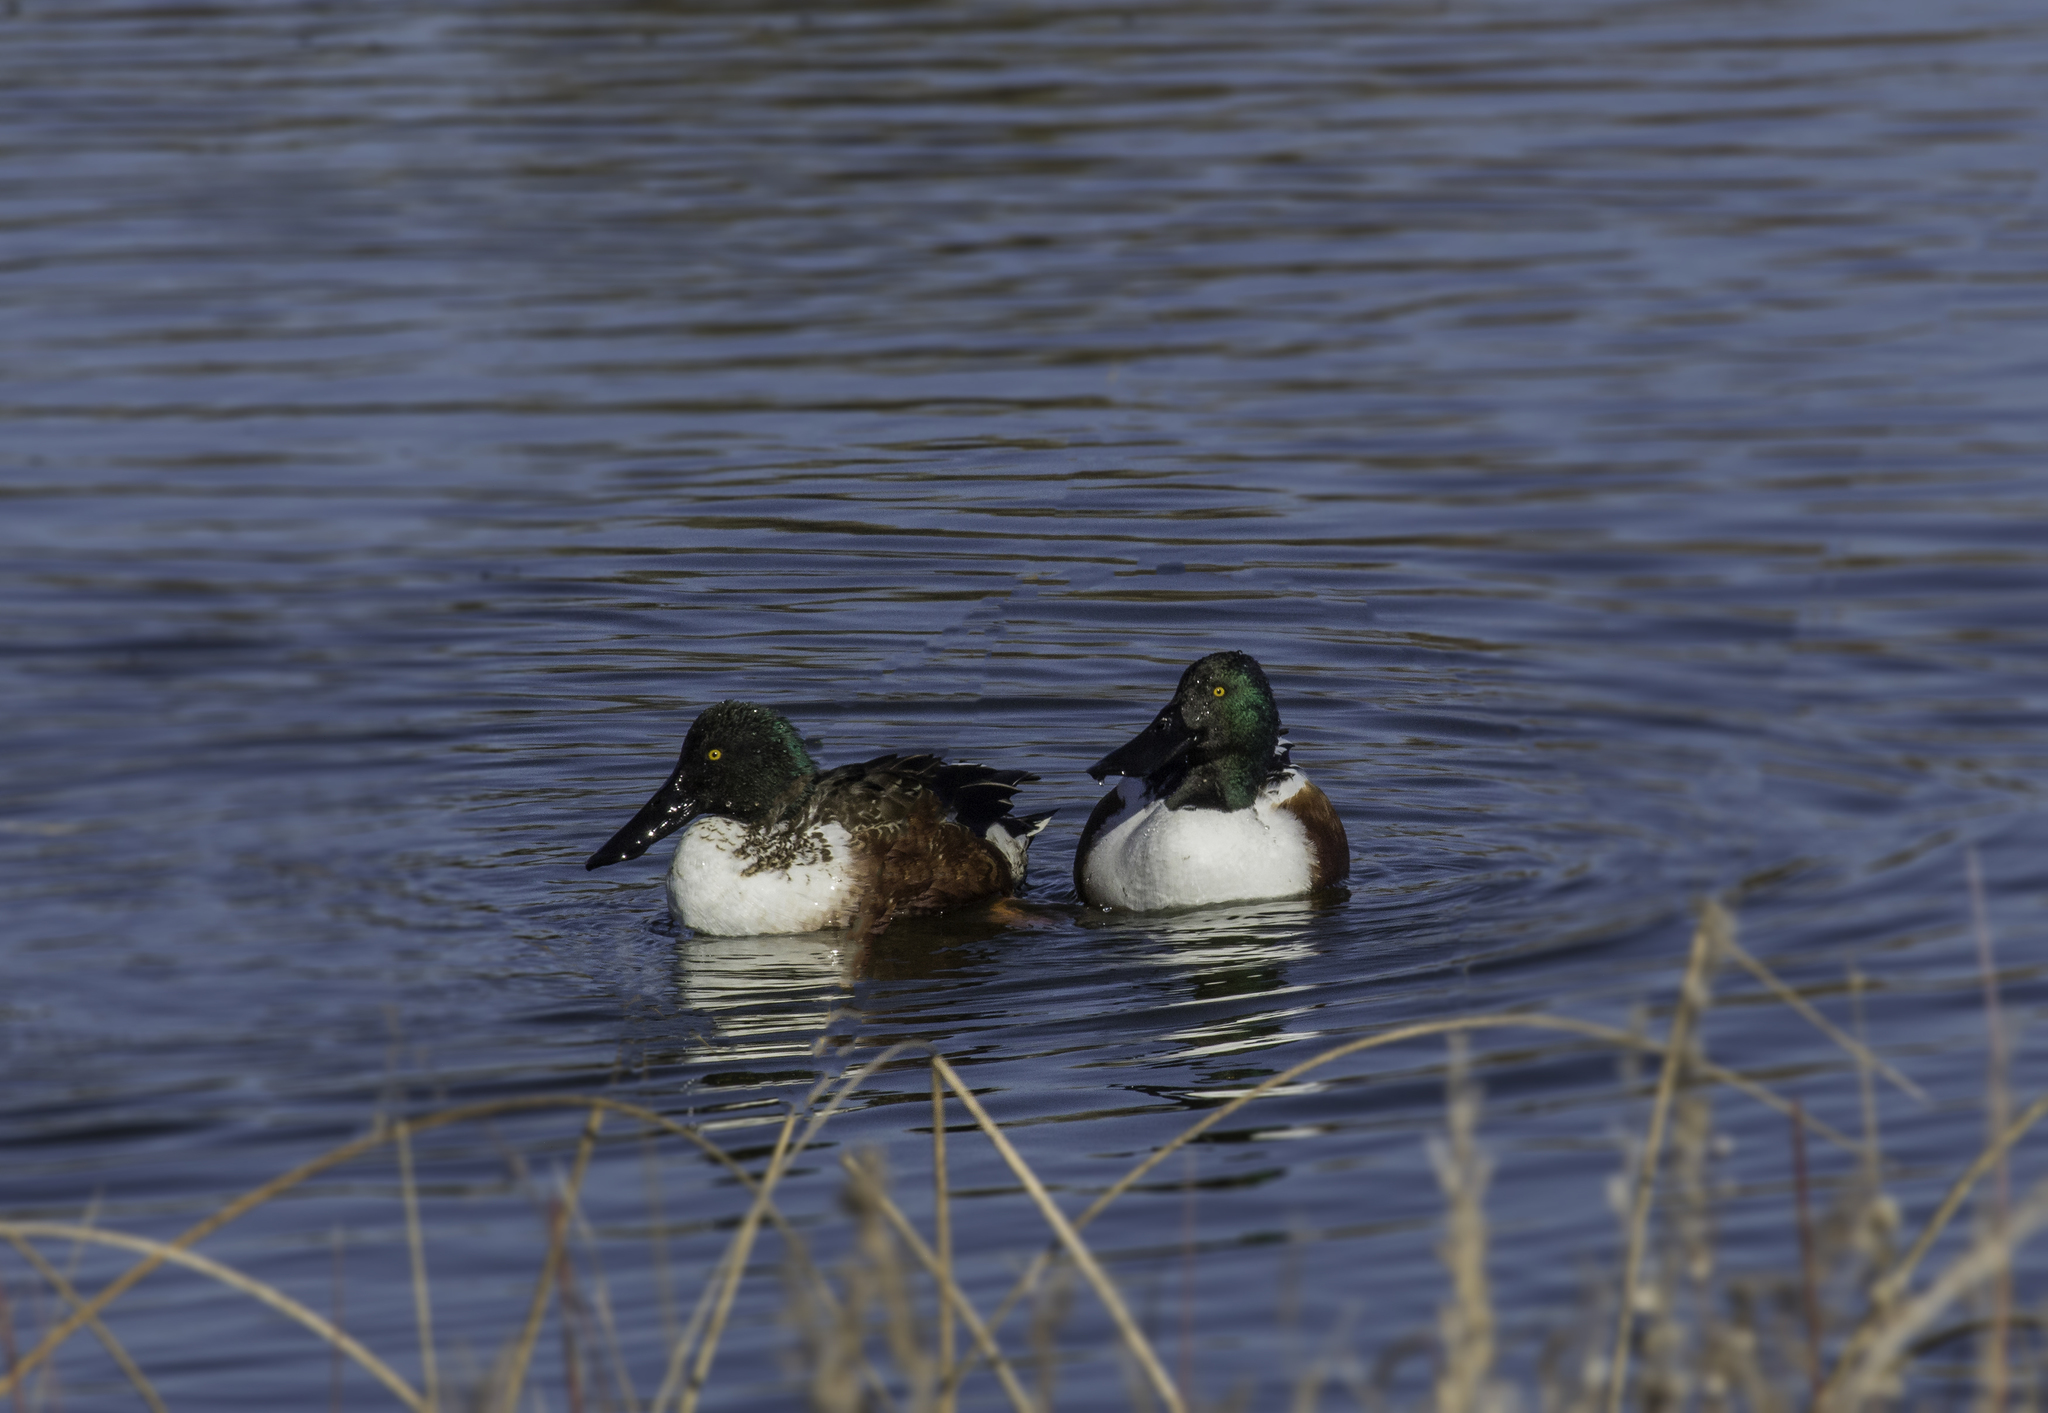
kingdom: Animalia
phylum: Chordata
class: Aves
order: Anseriformes
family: Anatidae
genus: Spatula
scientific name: Spatula clypeata
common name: Northern shoveler
